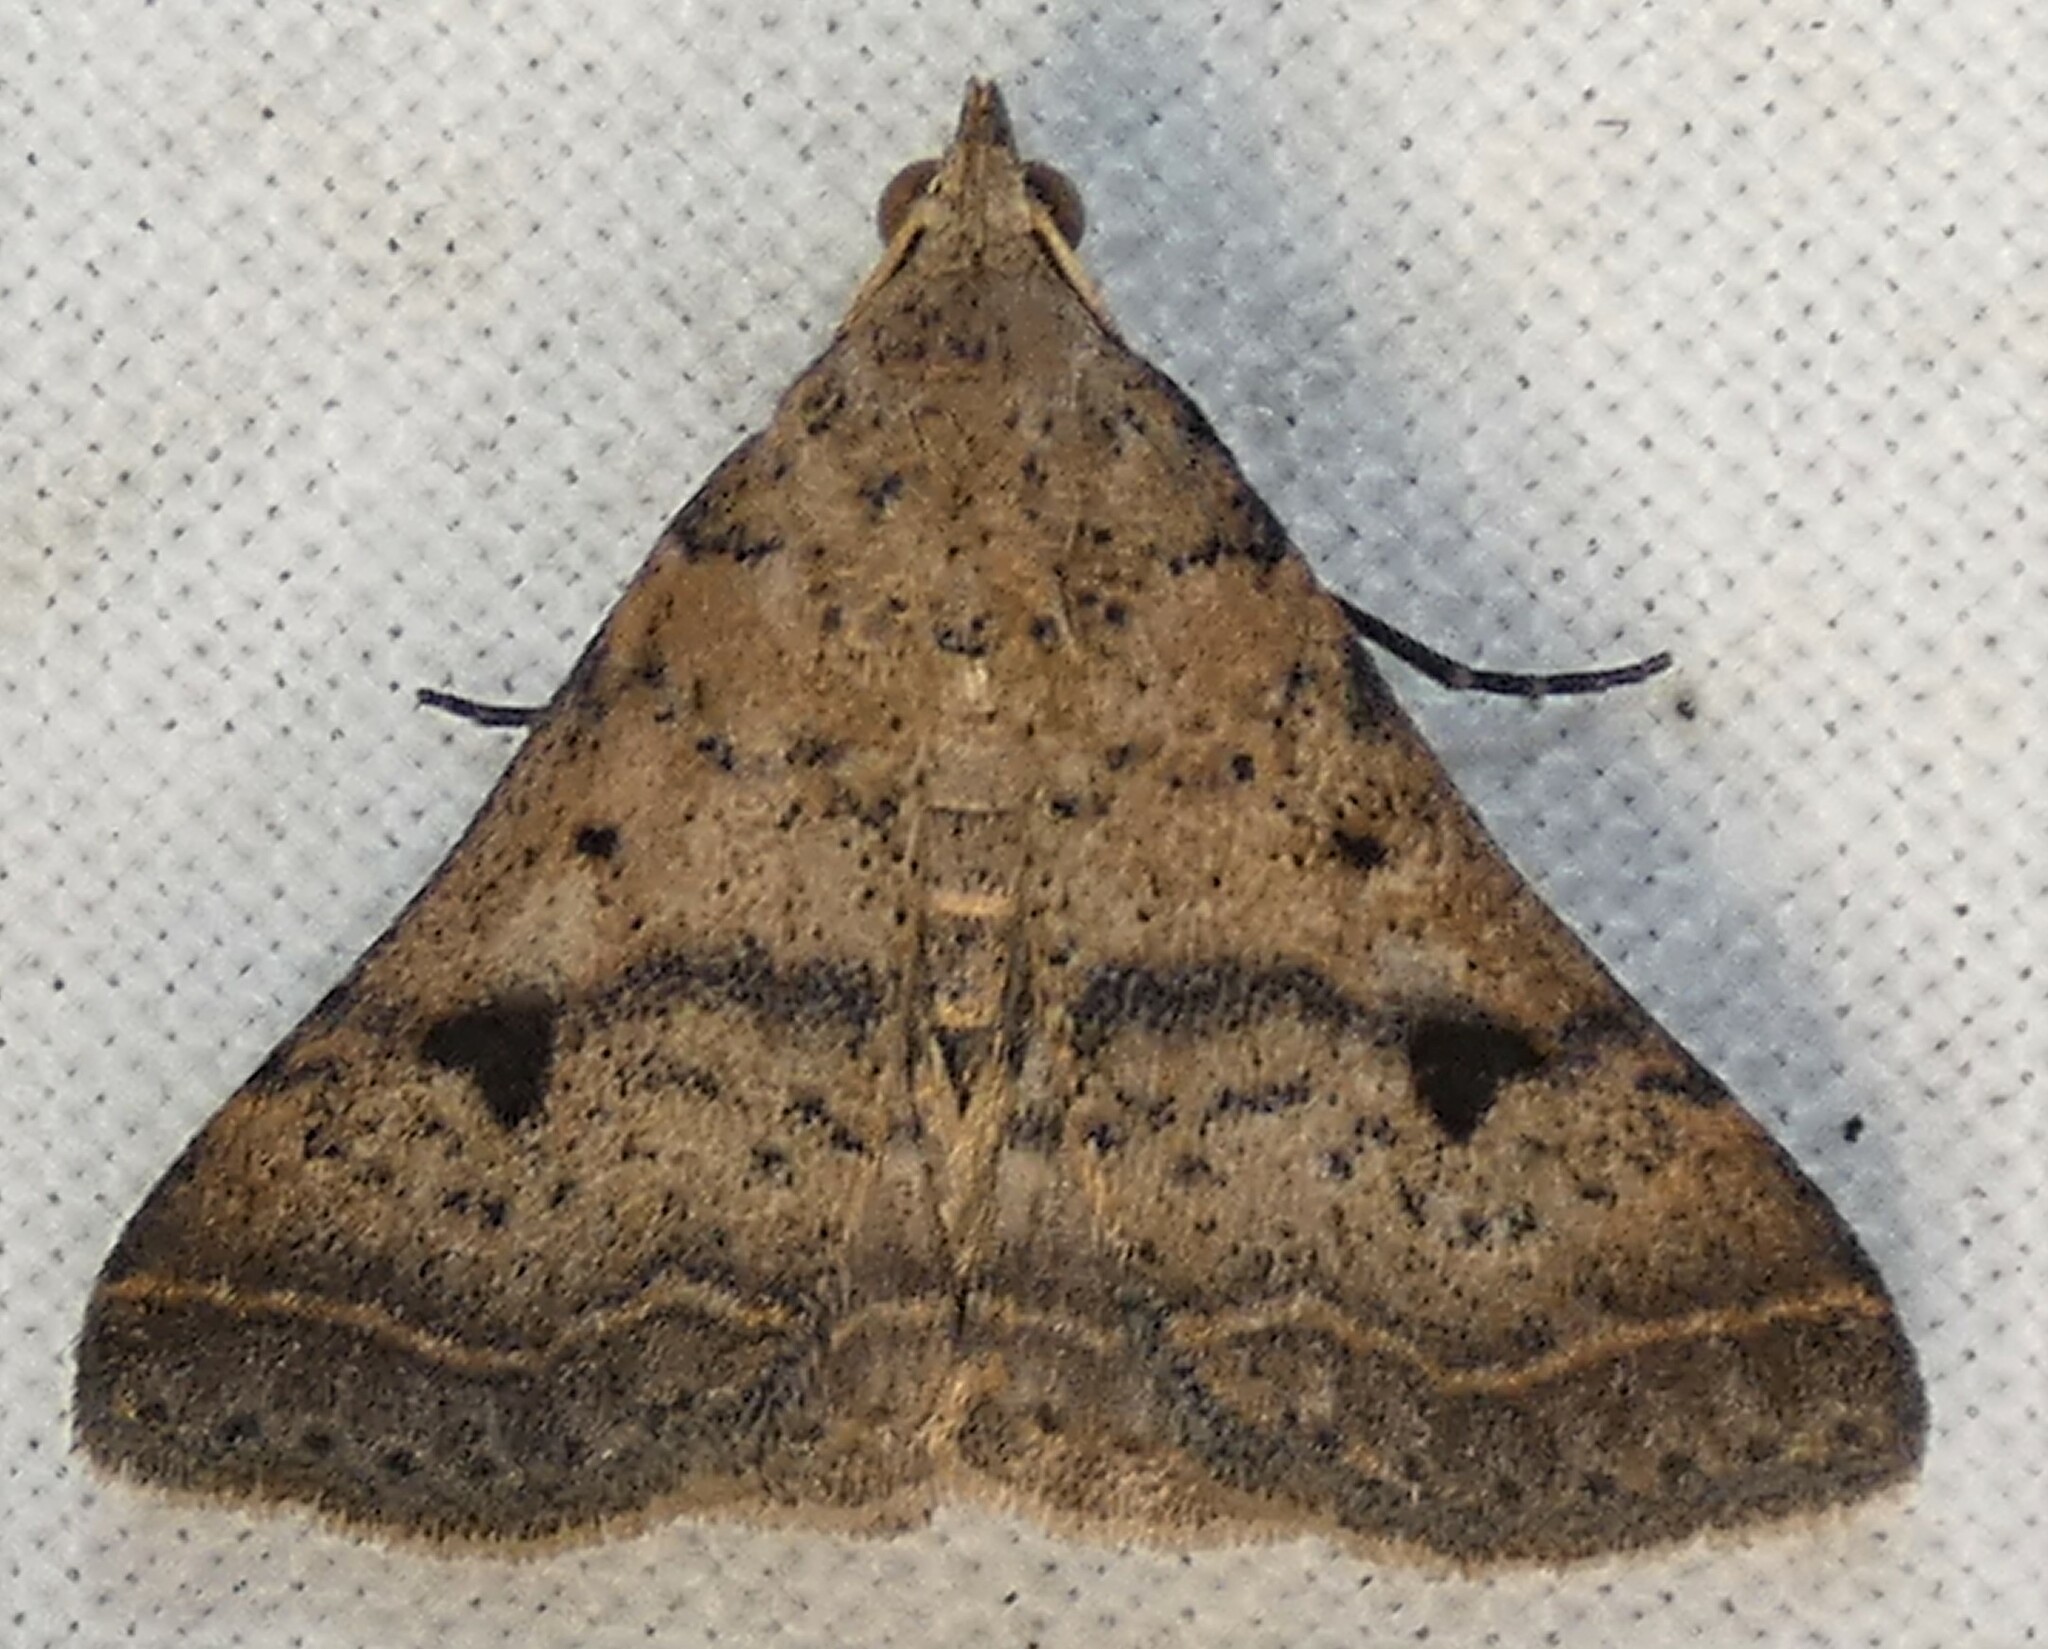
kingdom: Animalia
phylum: Arthropoda
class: Insecta
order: Lepidoptera
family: Erebidae
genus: Bleptina
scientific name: Bleptina caradrinalis
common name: Bent-winged owlet
